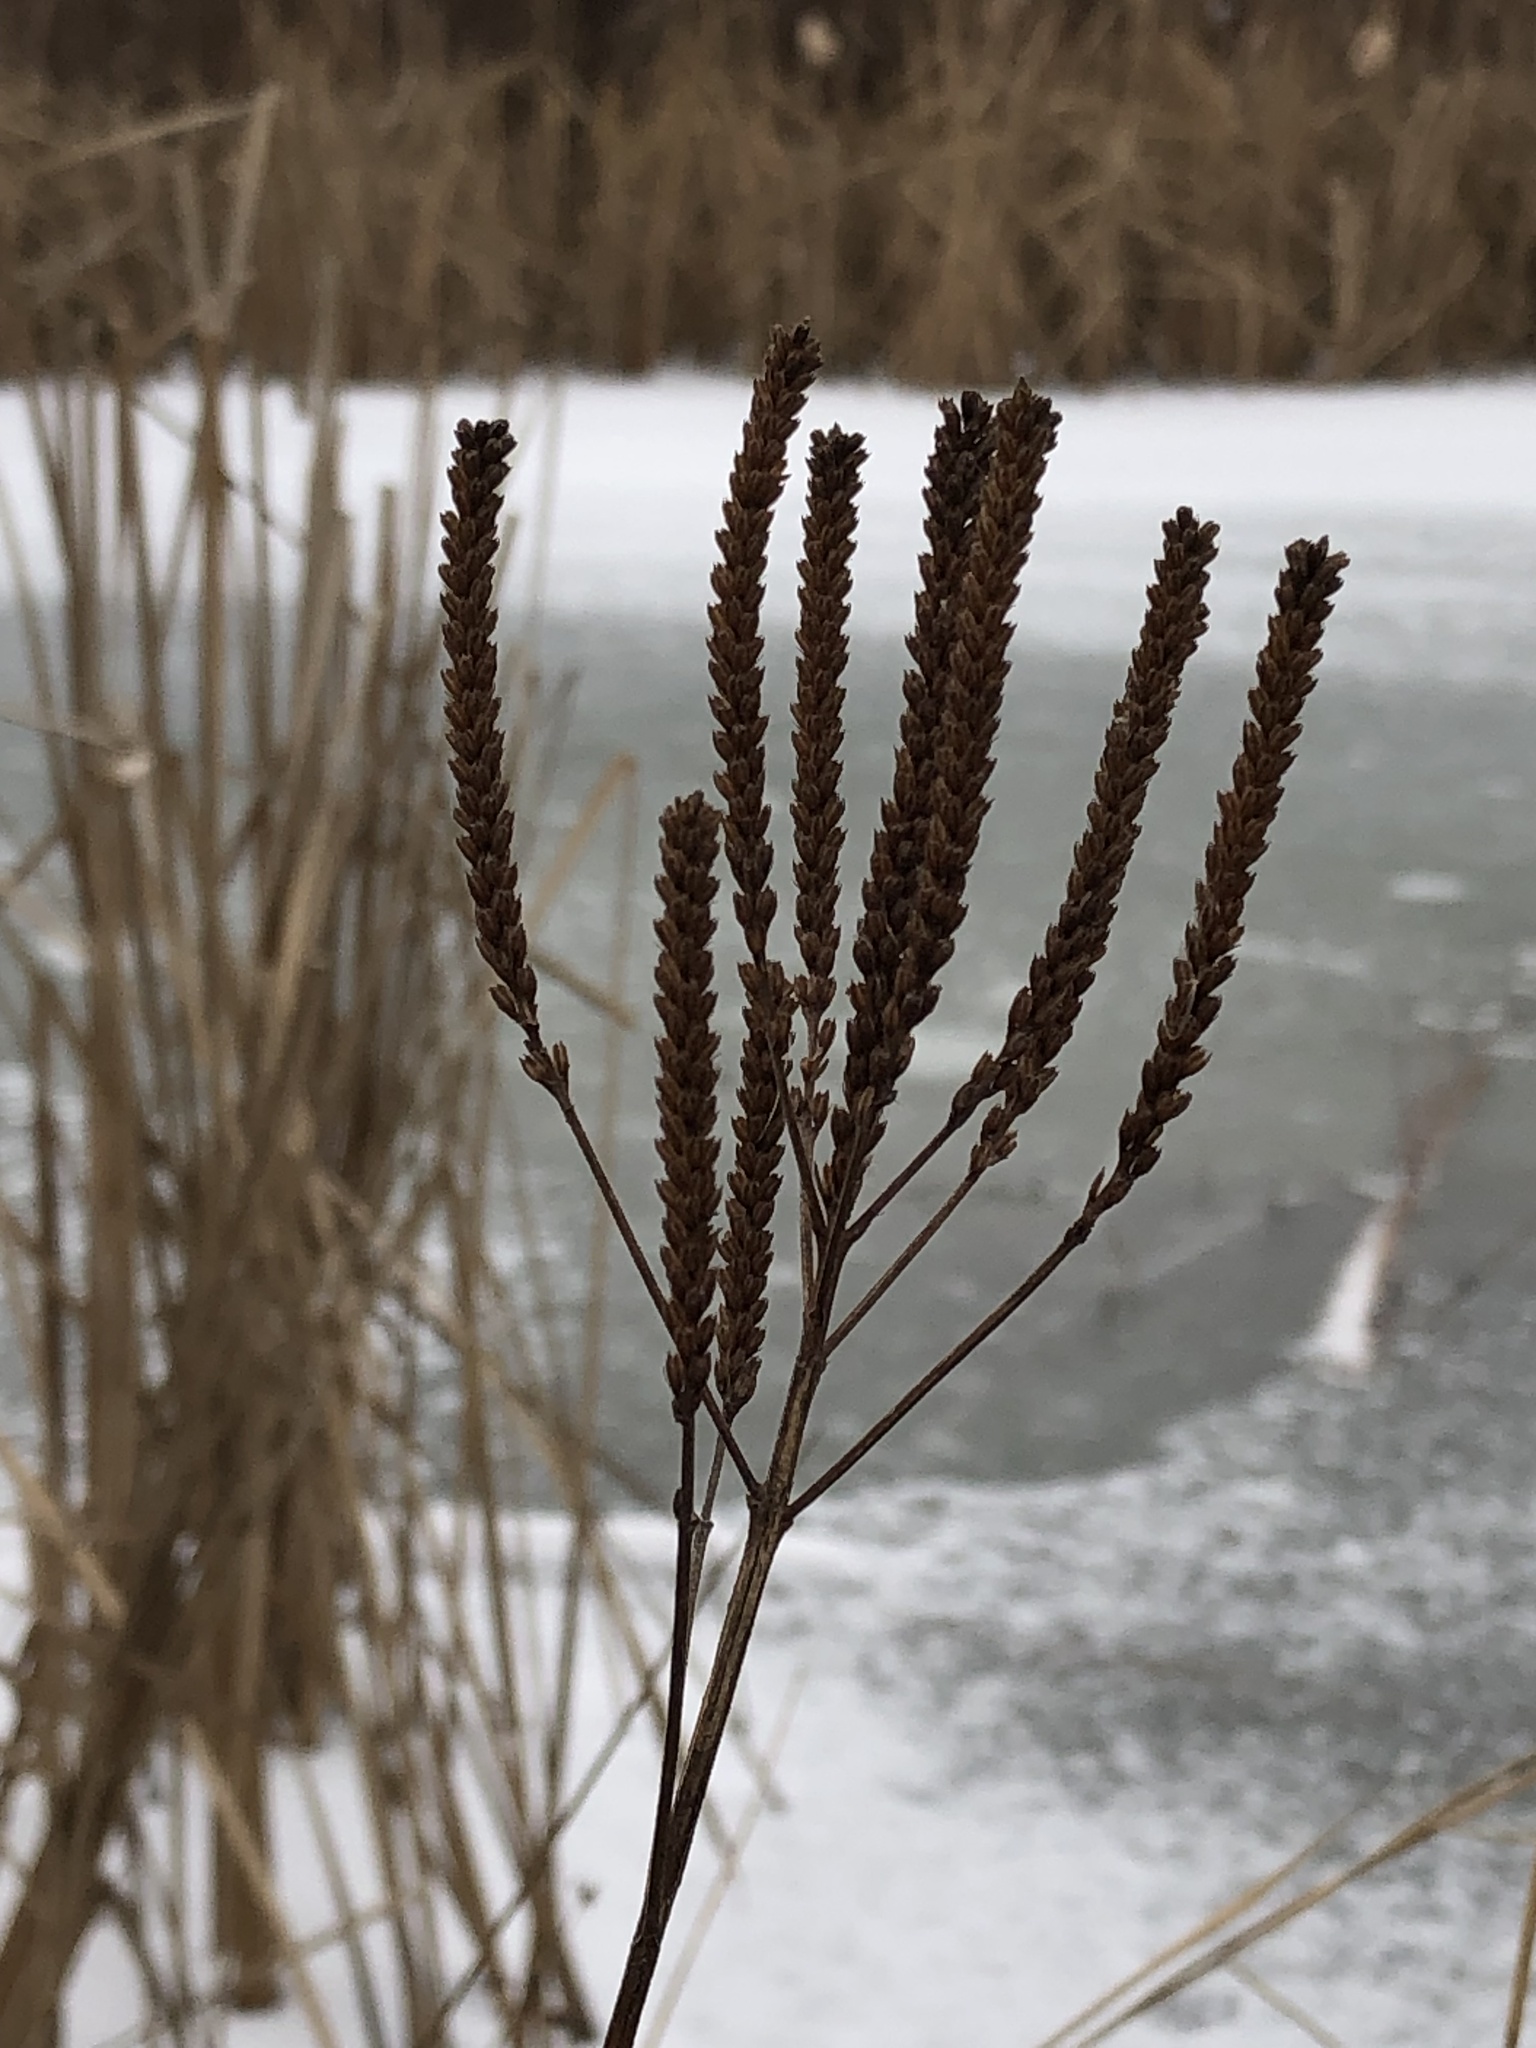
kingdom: Plantae
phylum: Tracheophyta
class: Magnoliopsida
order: Lamiales
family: Verbenaceae
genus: Verbena
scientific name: Verbena hastata
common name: American blue vervain
